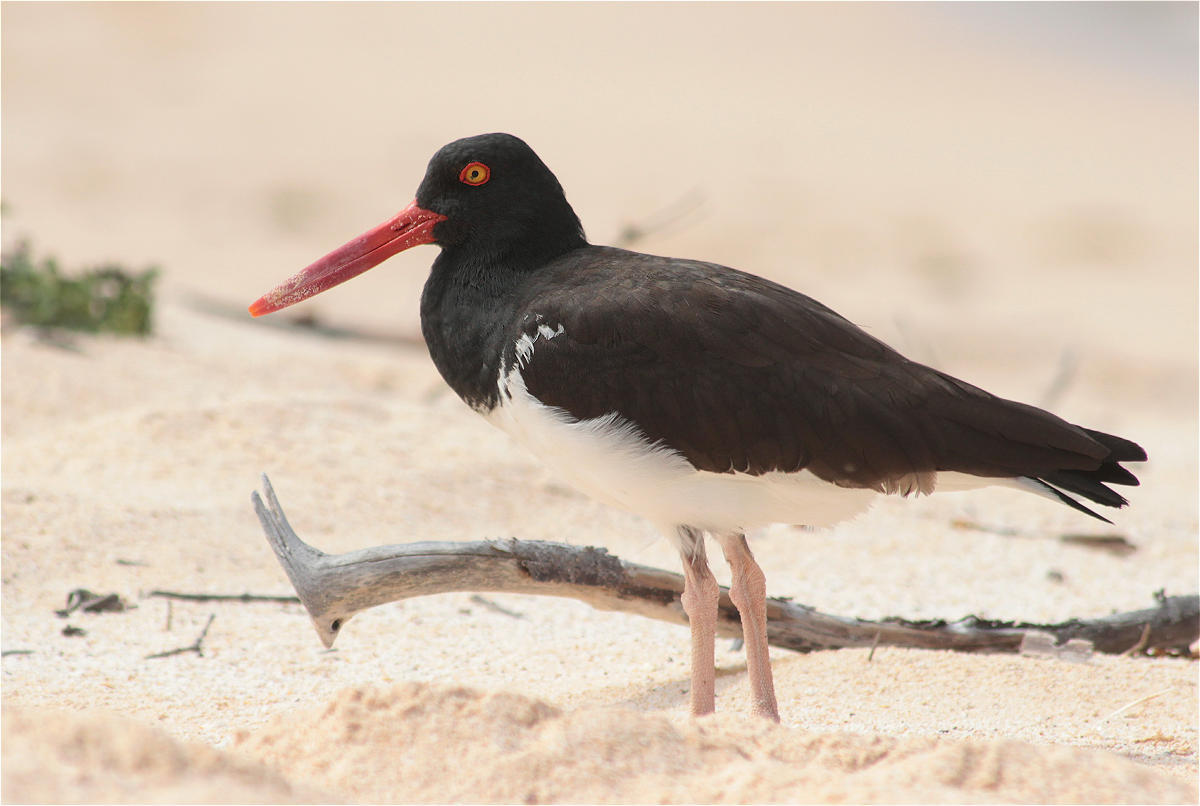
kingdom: Animalia
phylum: Chordata
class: Aves
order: Charadriiformes
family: Haematopodidae
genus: Haematopus
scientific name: Haematopus palliatus
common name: American oystercatcher
